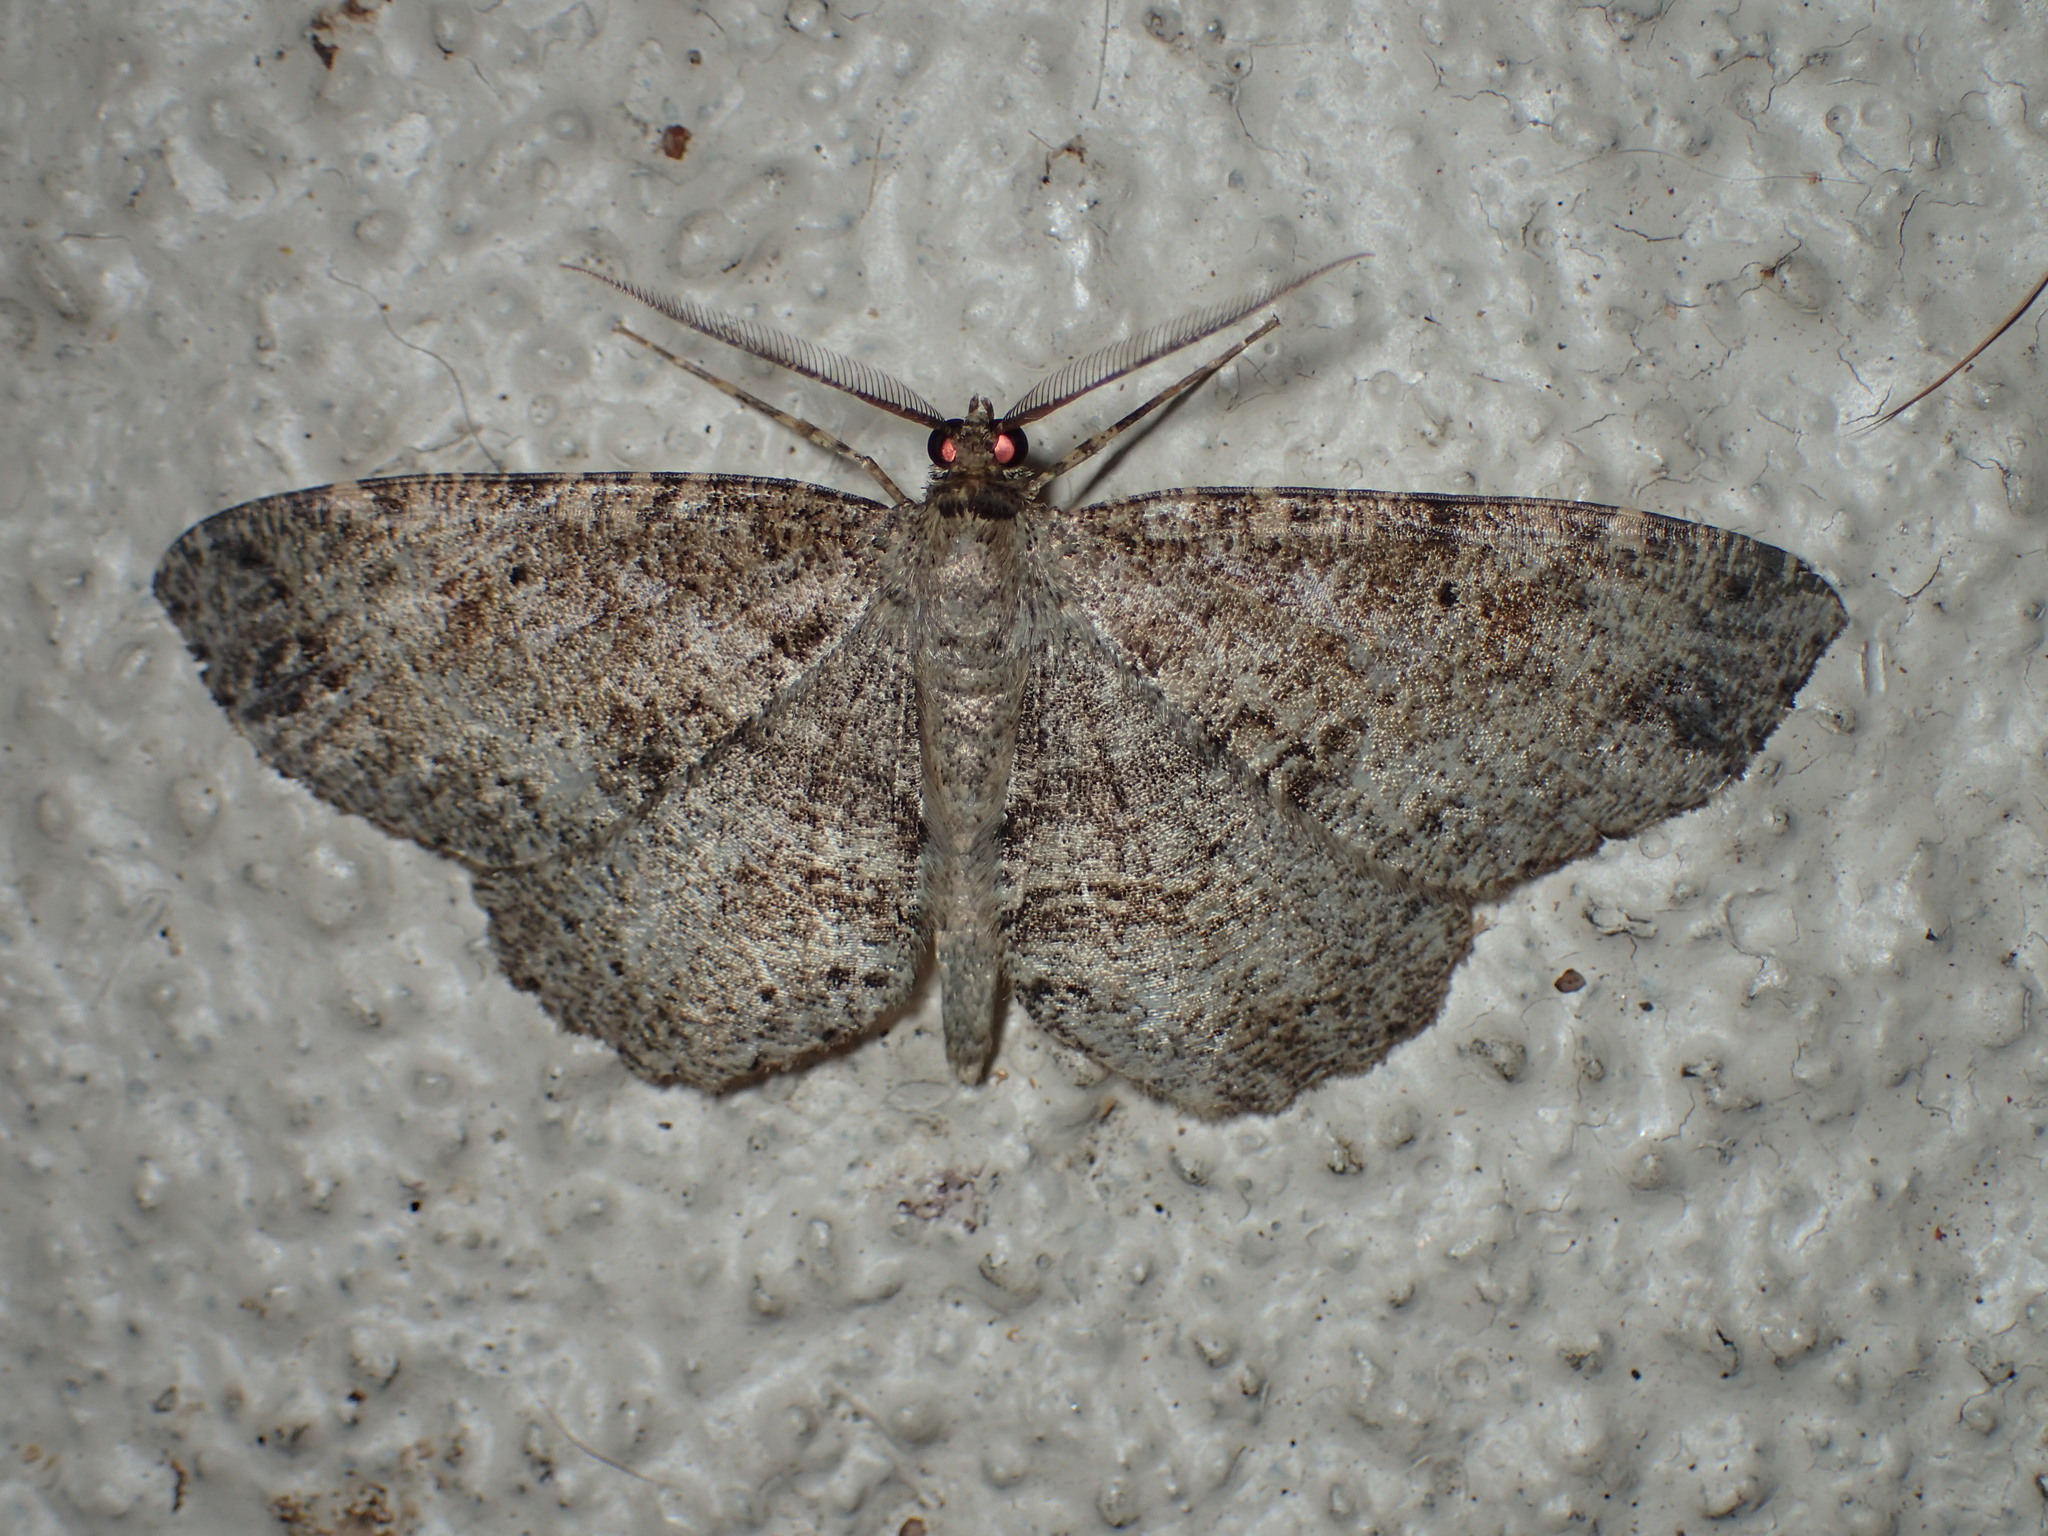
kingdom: Animalia
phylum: Arthropoda
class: Insecta
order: Lepidoptera
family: Geometridae
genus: Melanolophia
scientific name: Melanolophia canadaria
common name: Canadian melanolophia
